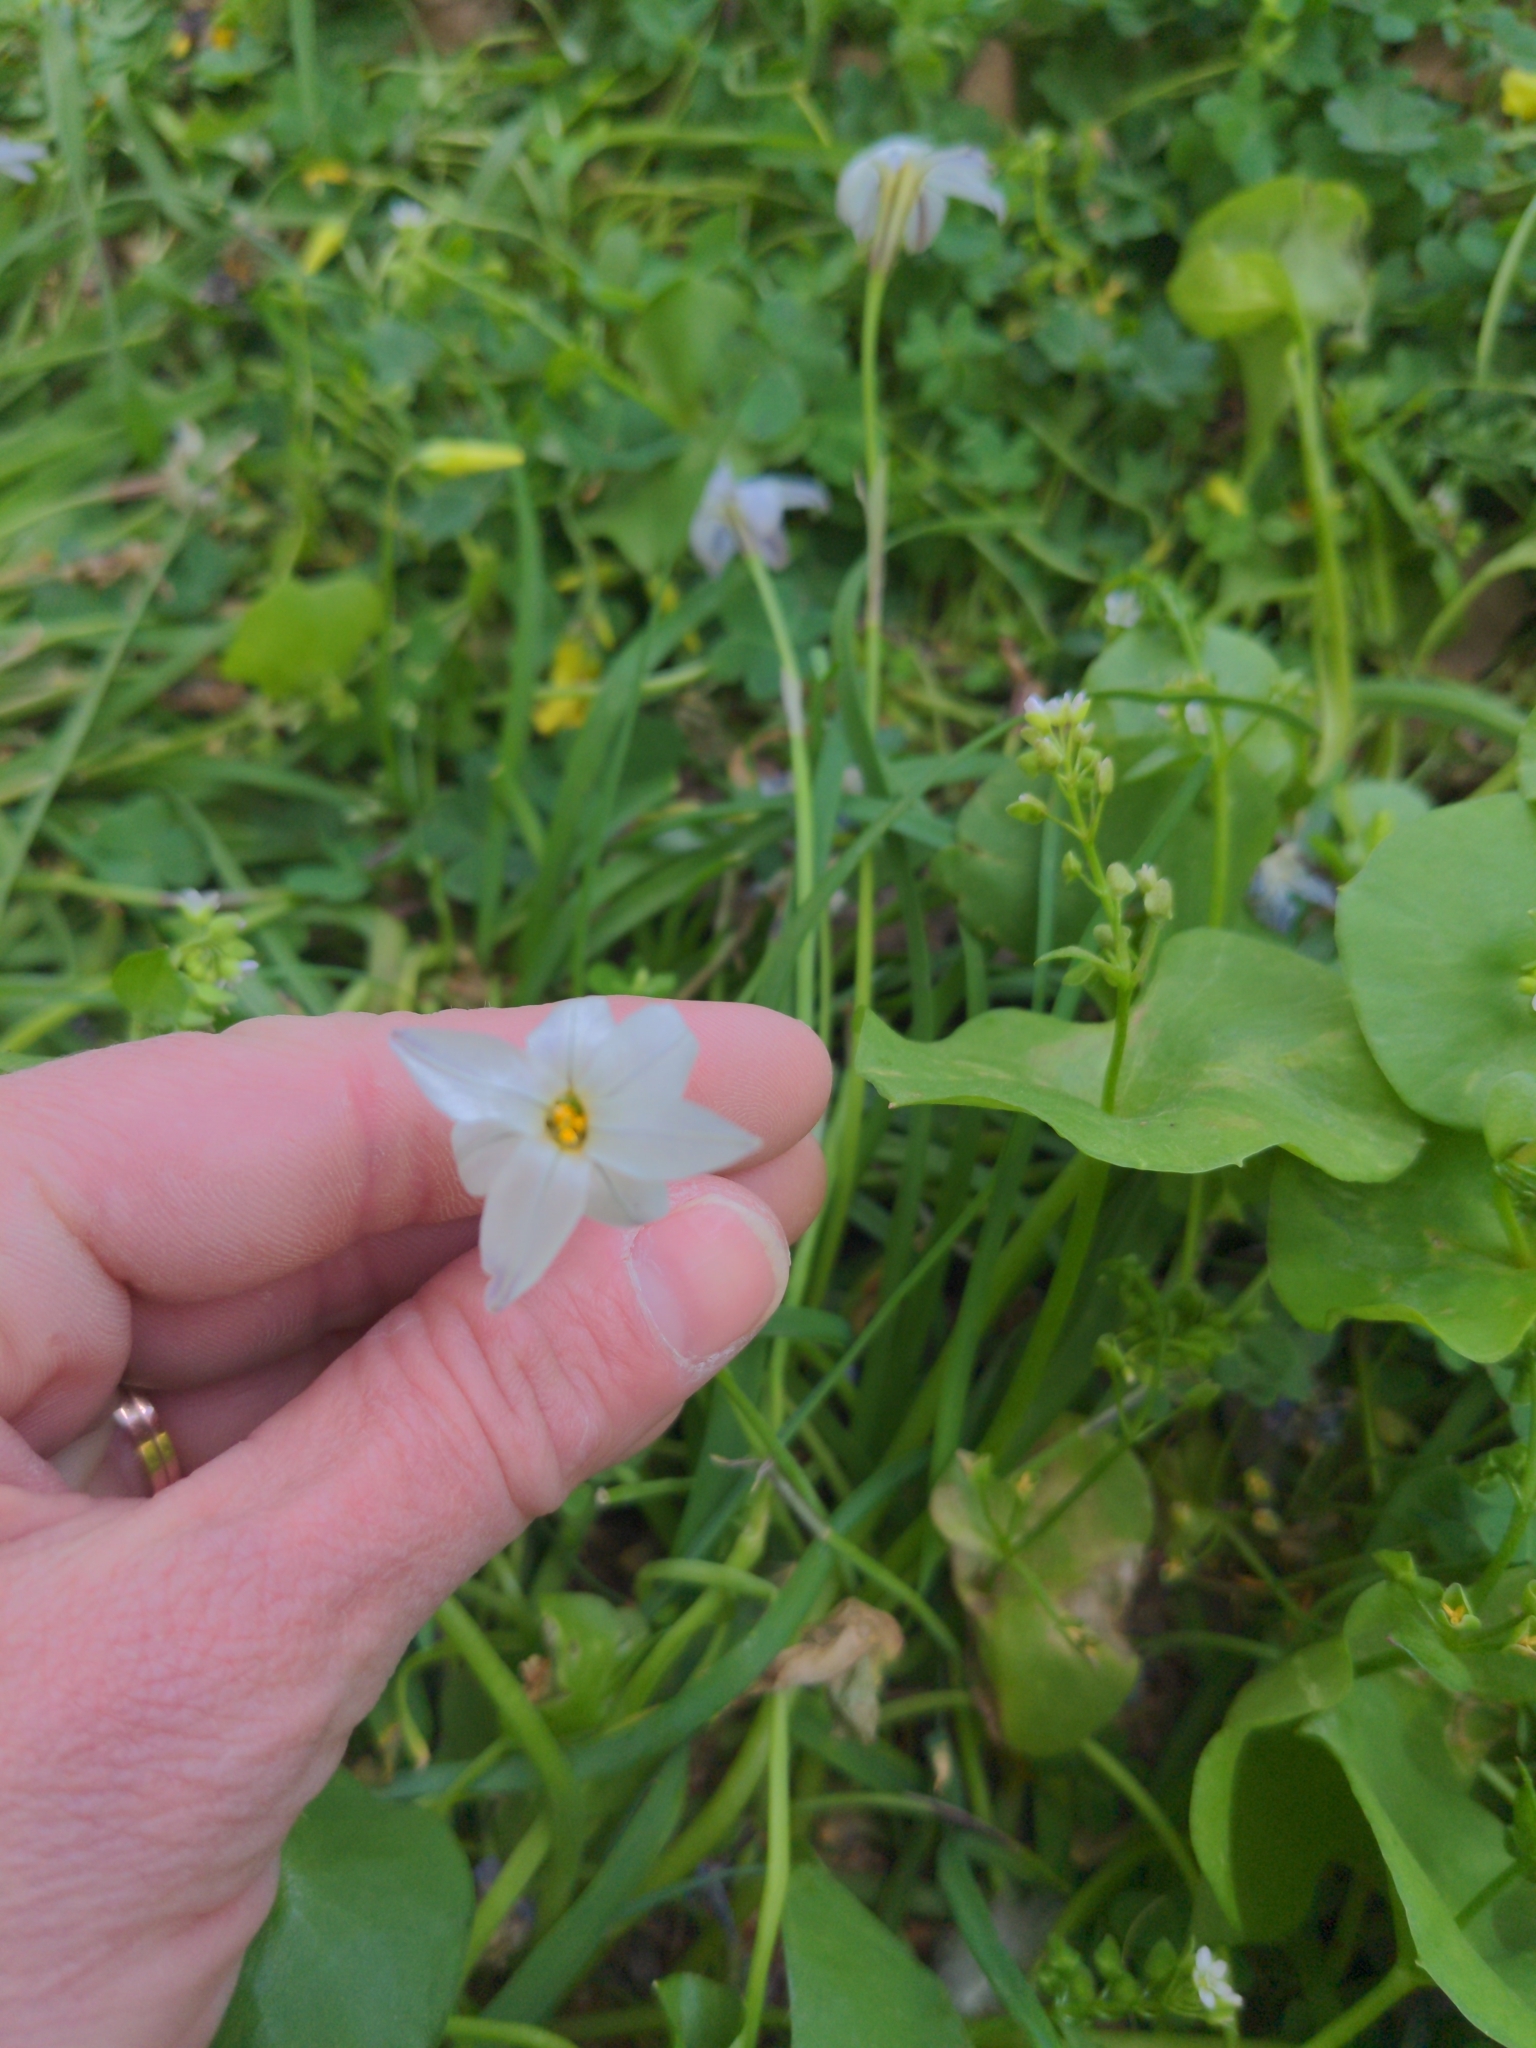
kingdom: Plantae
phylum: Tracheophyta
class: Liliopsida
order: Asparagales
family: Amaryllidaceae
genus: Ipheion
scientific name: Ipheion uniflorum
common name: Spring starflower
